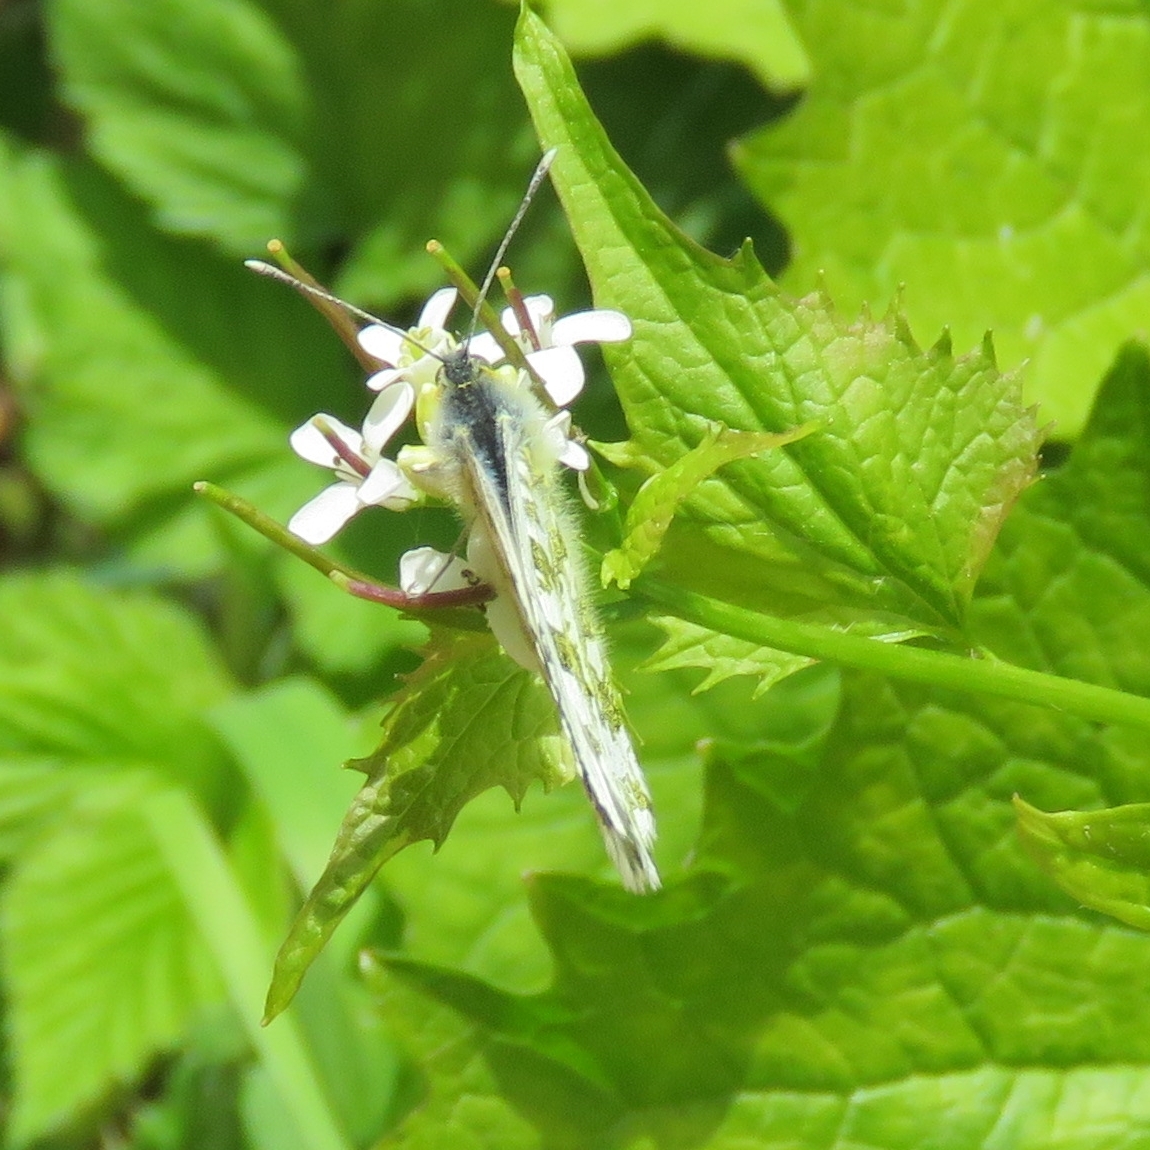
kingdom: Animalia
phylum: Arthropoda
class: Insecta
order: Lepidoptera
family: Pieridae
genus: Anthocharis
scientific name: Anthocharis cardamines
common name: Orange-tip
